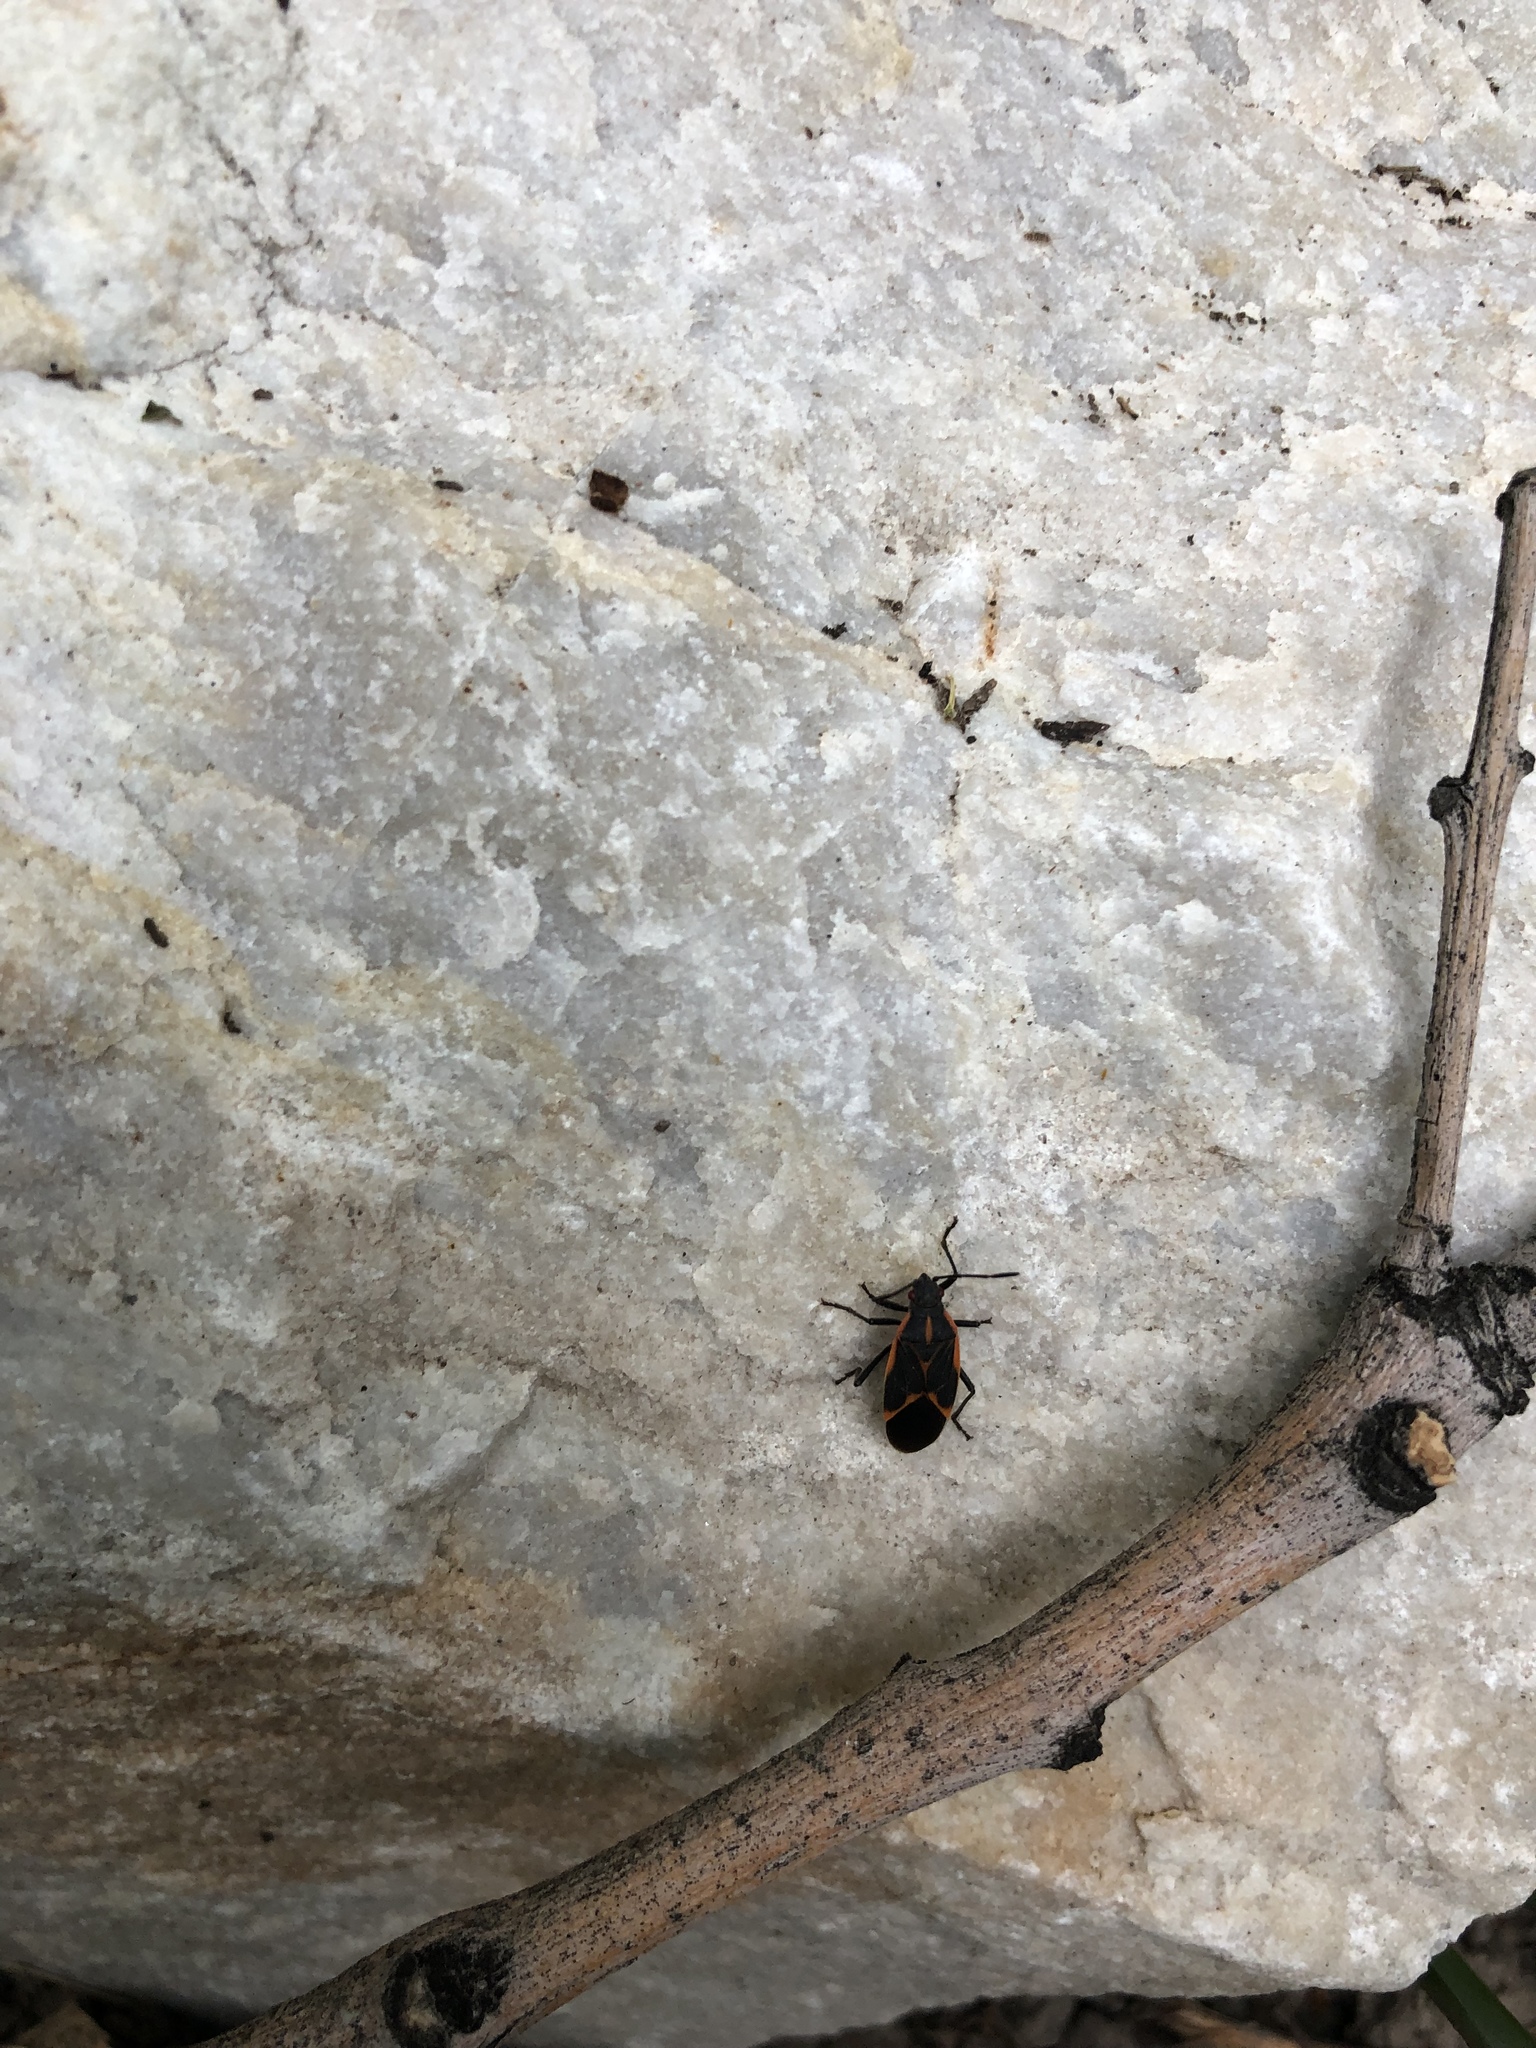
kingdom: Animalia
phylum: Arthropoda
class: Insecta
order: Hemiptera
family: Rhopalidae
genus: Boisea
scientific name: Boisea trivittata
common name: Boxelder bug
